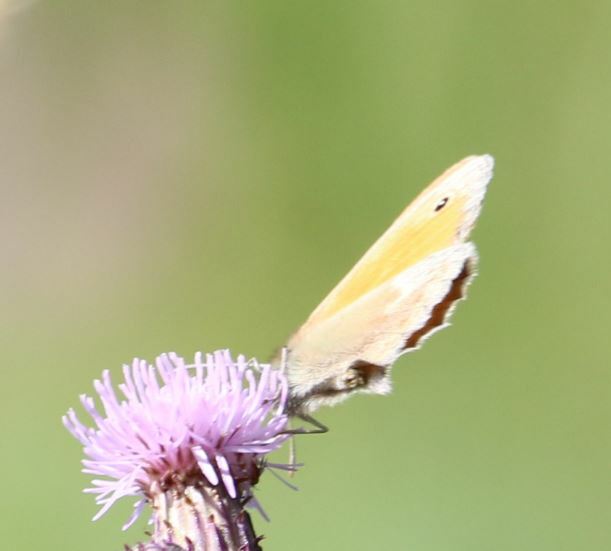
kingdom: Animalia
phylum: Arthropoda
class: Insecta
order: Lepidoptera
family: Nymphalidae
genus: Coenonympha
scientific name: Coenonympha pamphilus
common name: Small heath
